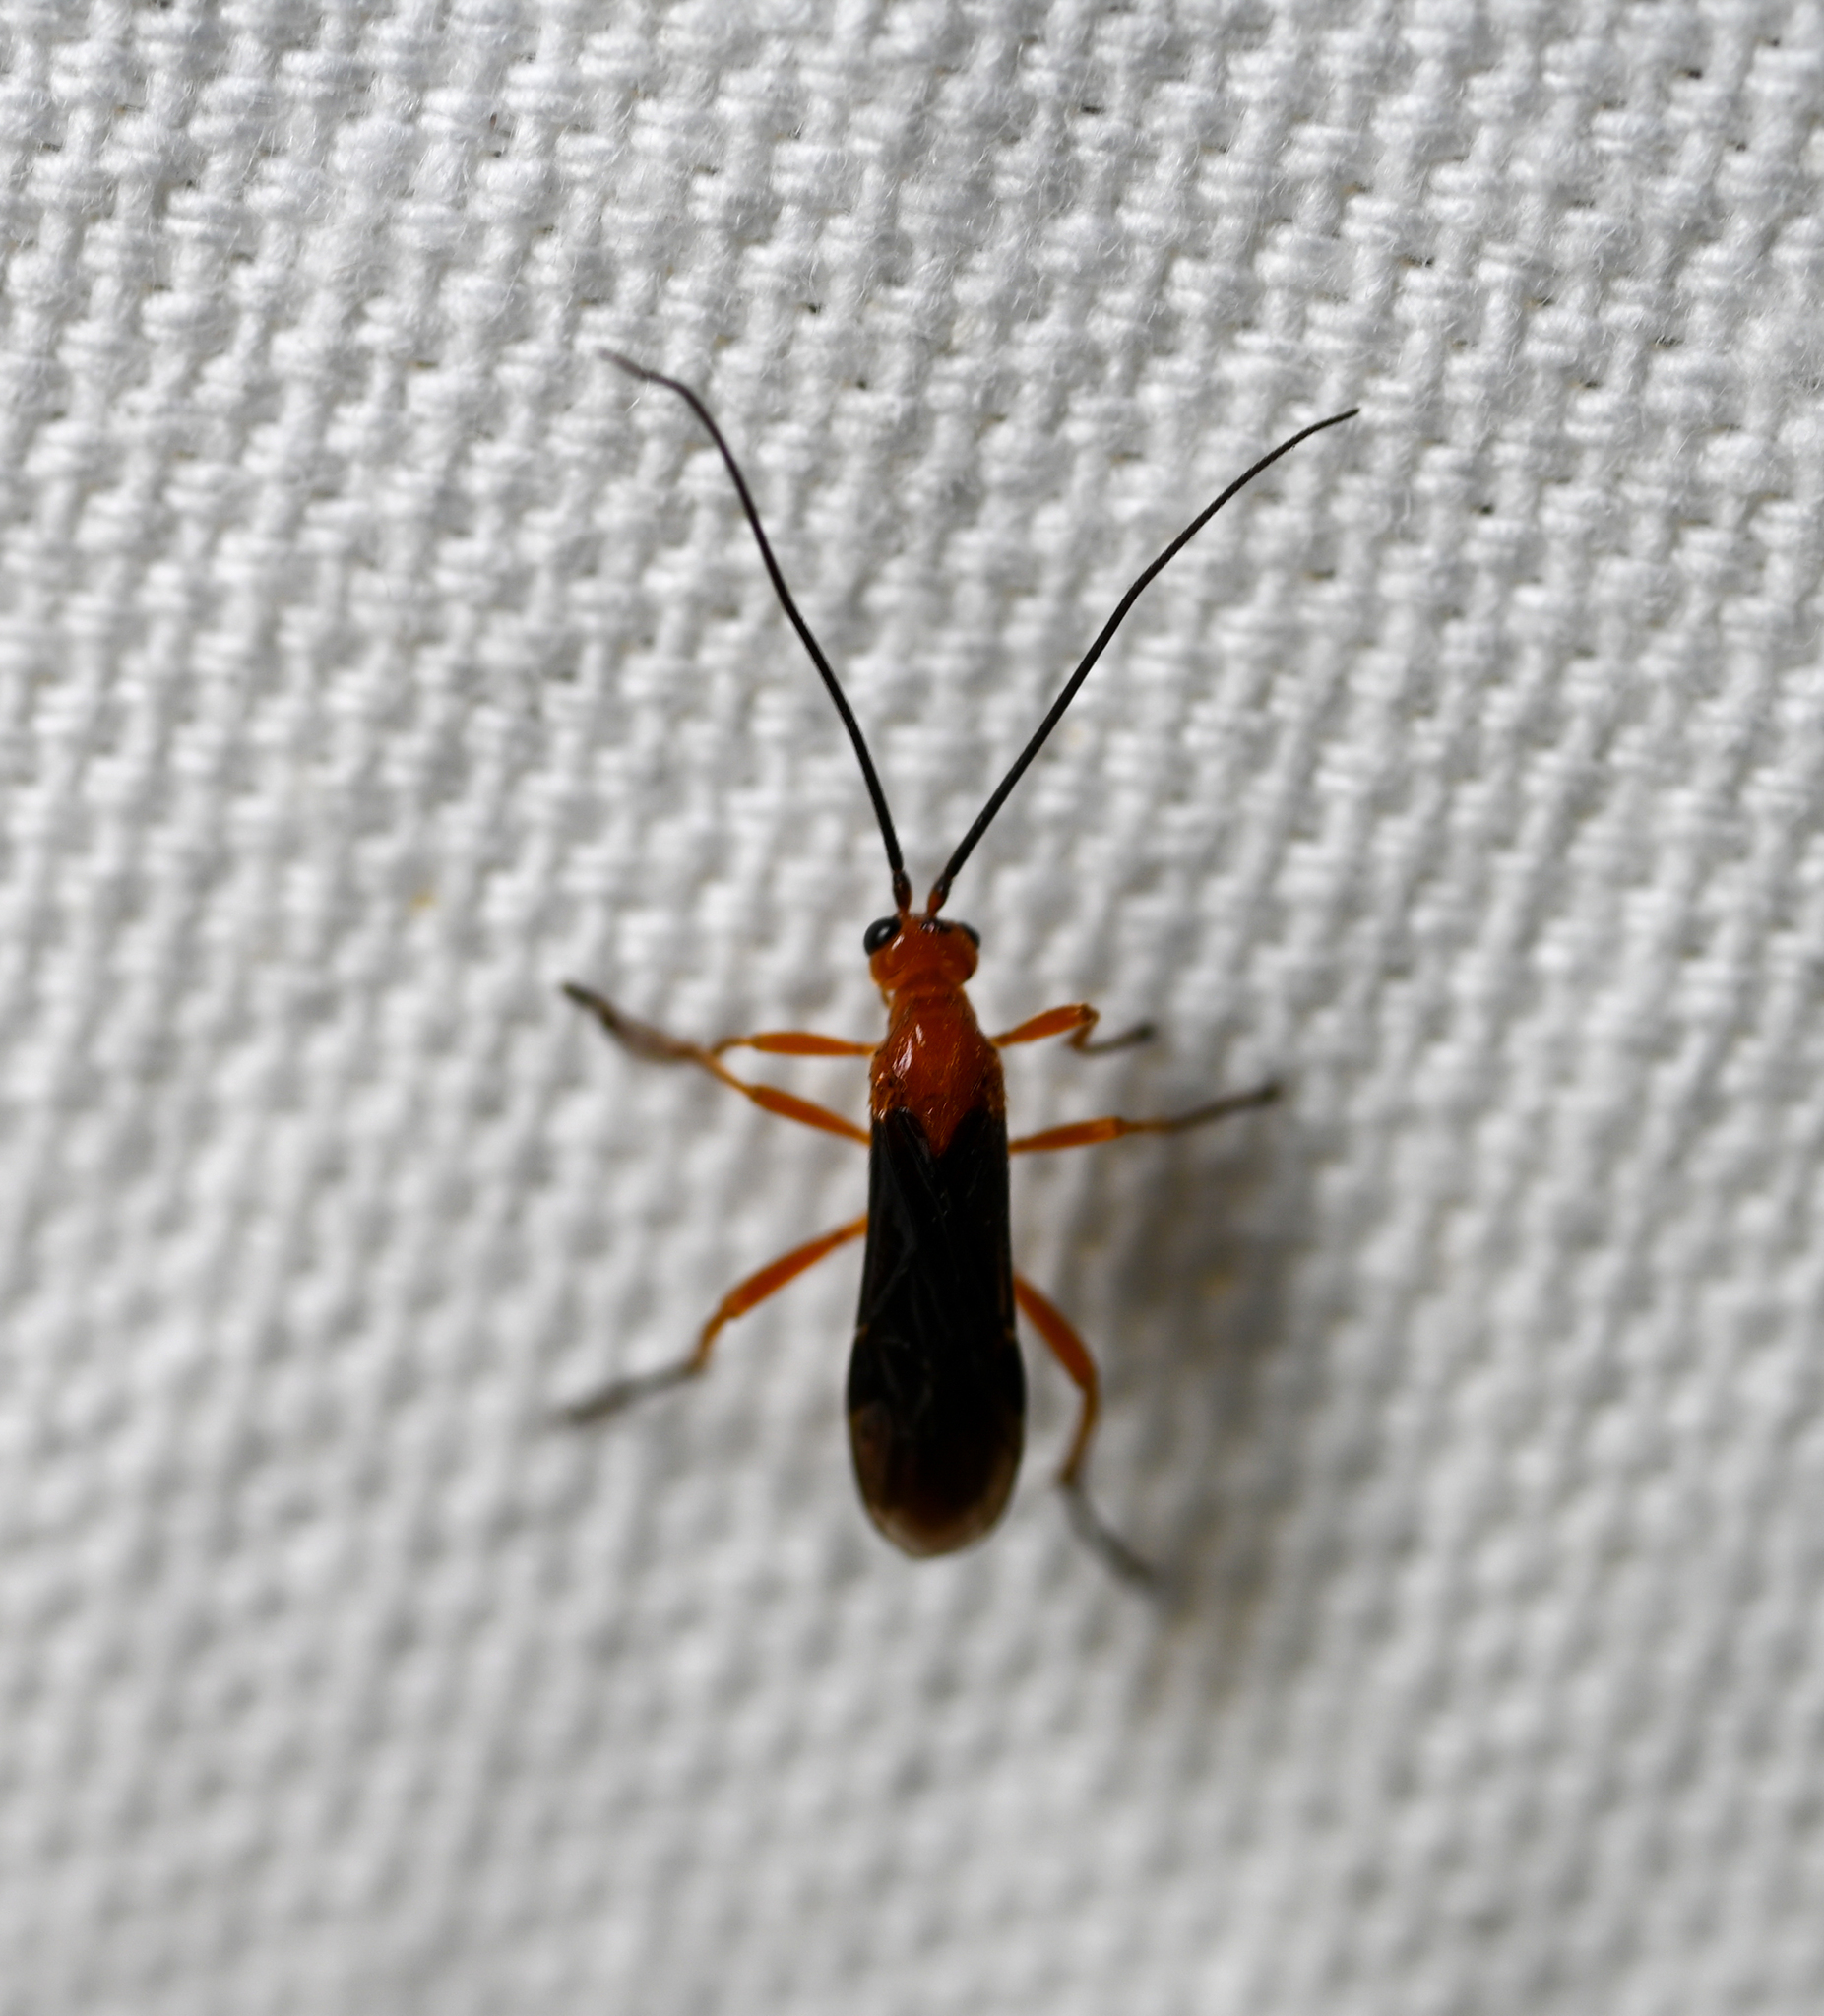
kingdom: Animalia
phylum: Arthropoda
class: Insecta
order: Hymenoptera
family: Braconidae
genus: Aleiodes
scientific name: Aleiodes politiceps
